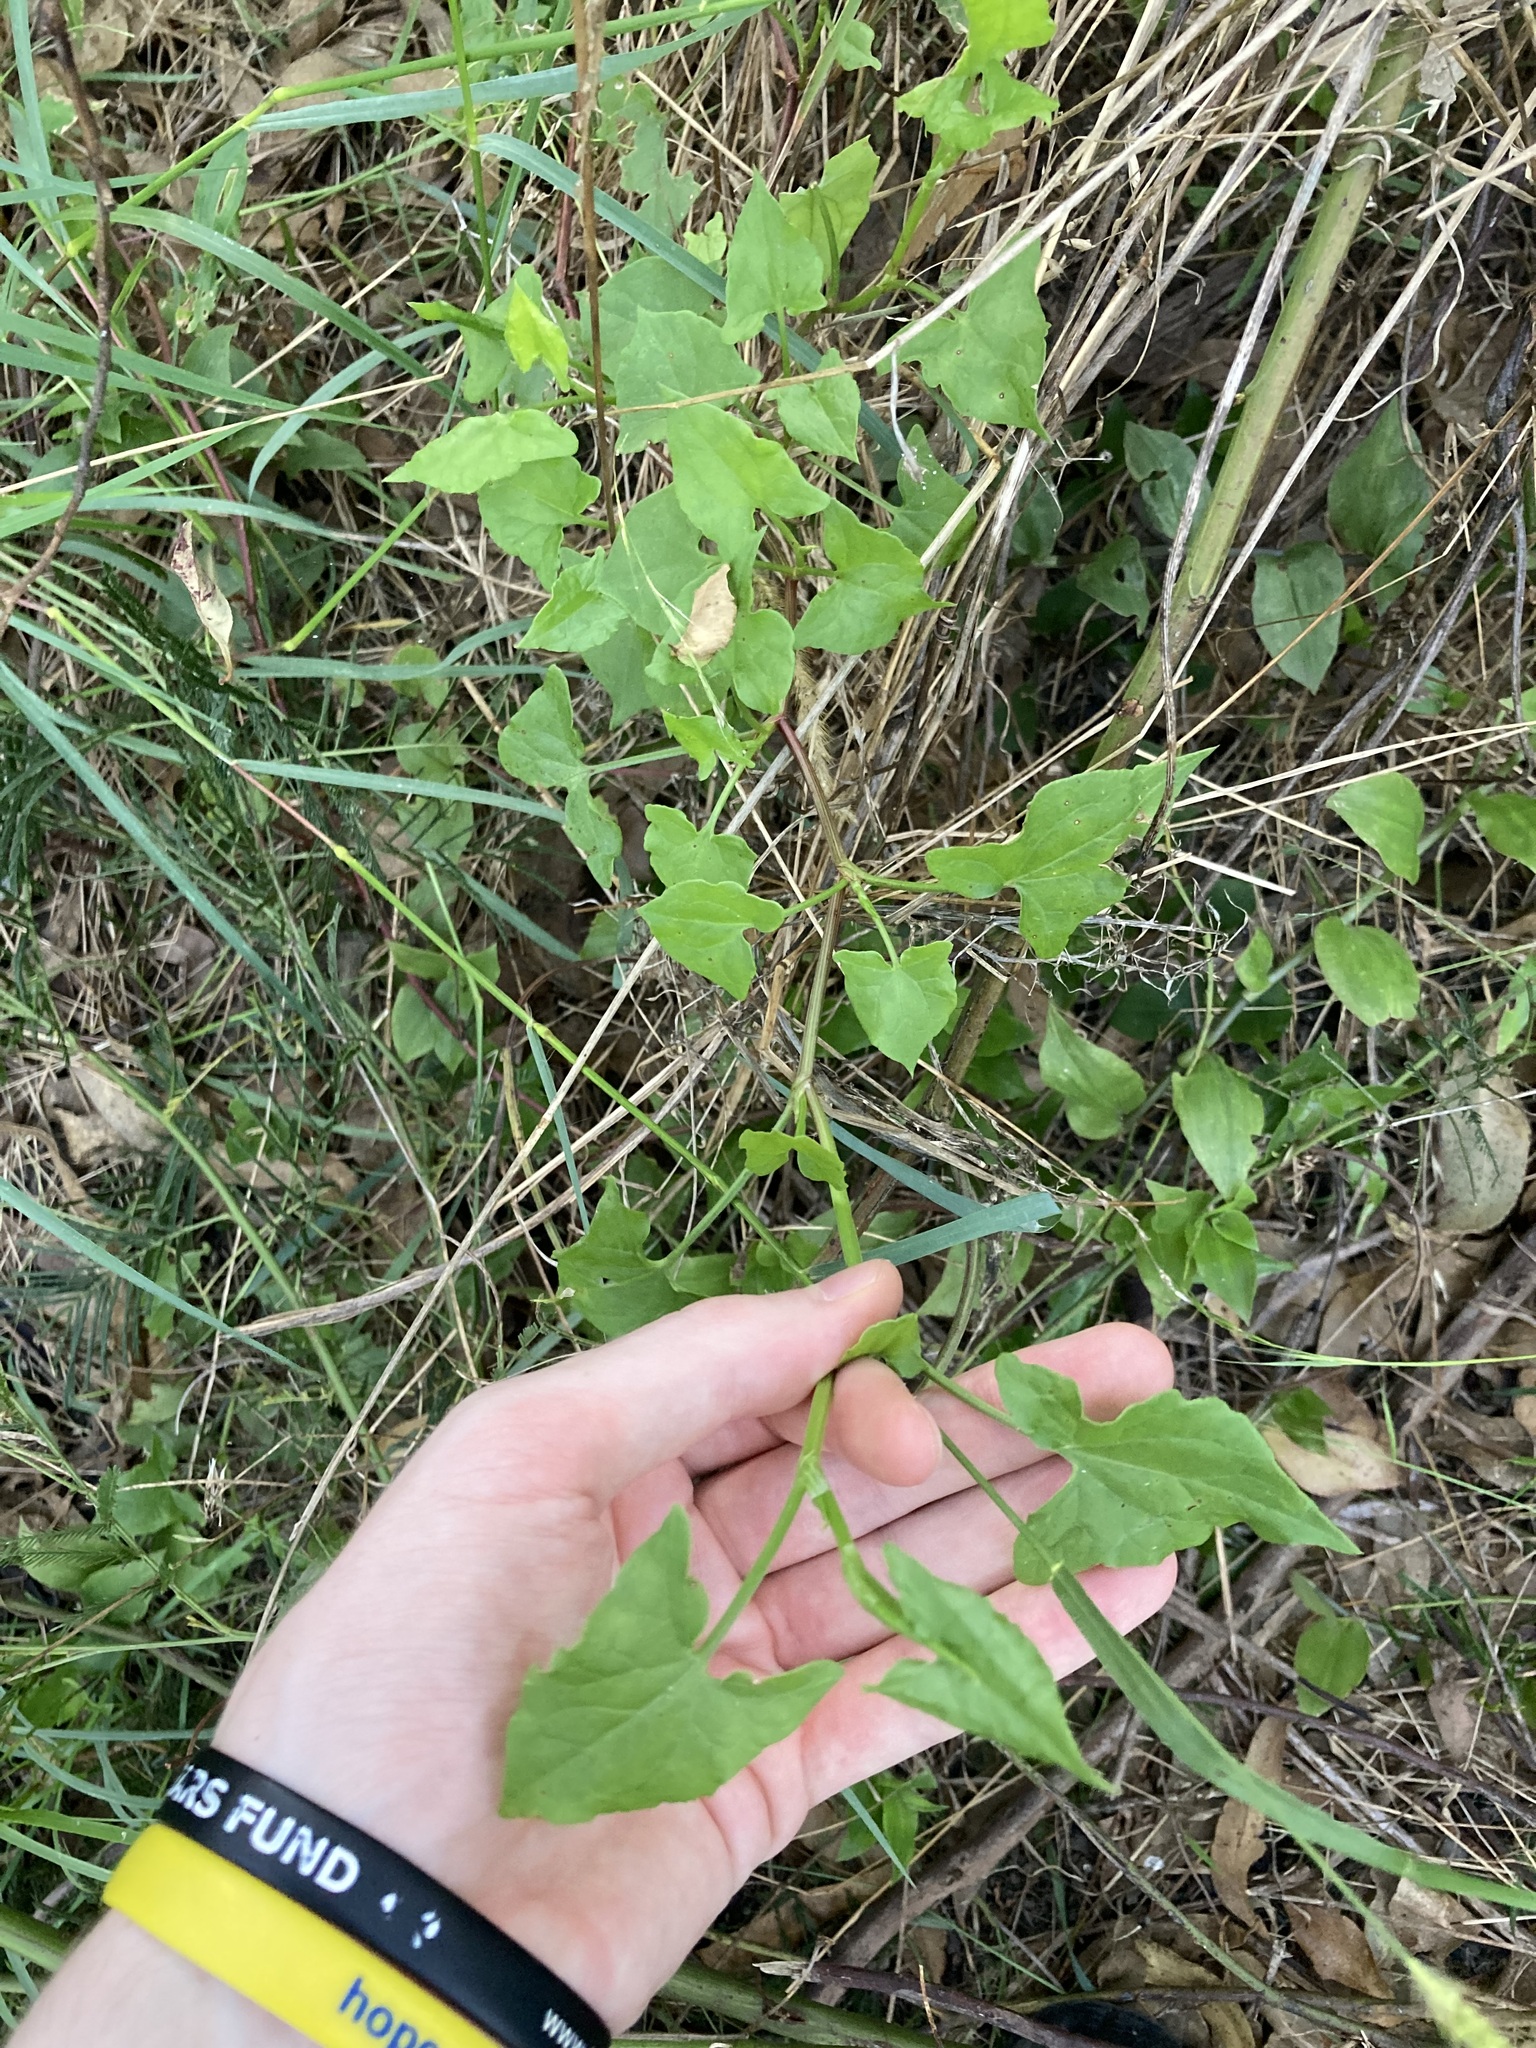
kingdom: Plantae
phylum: Tracheophyta
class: Magnoliopsida
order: Caryophyllales
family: Polygonaceae
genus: Rumex
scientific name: Rumex sagittatus
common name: Climbing dock
